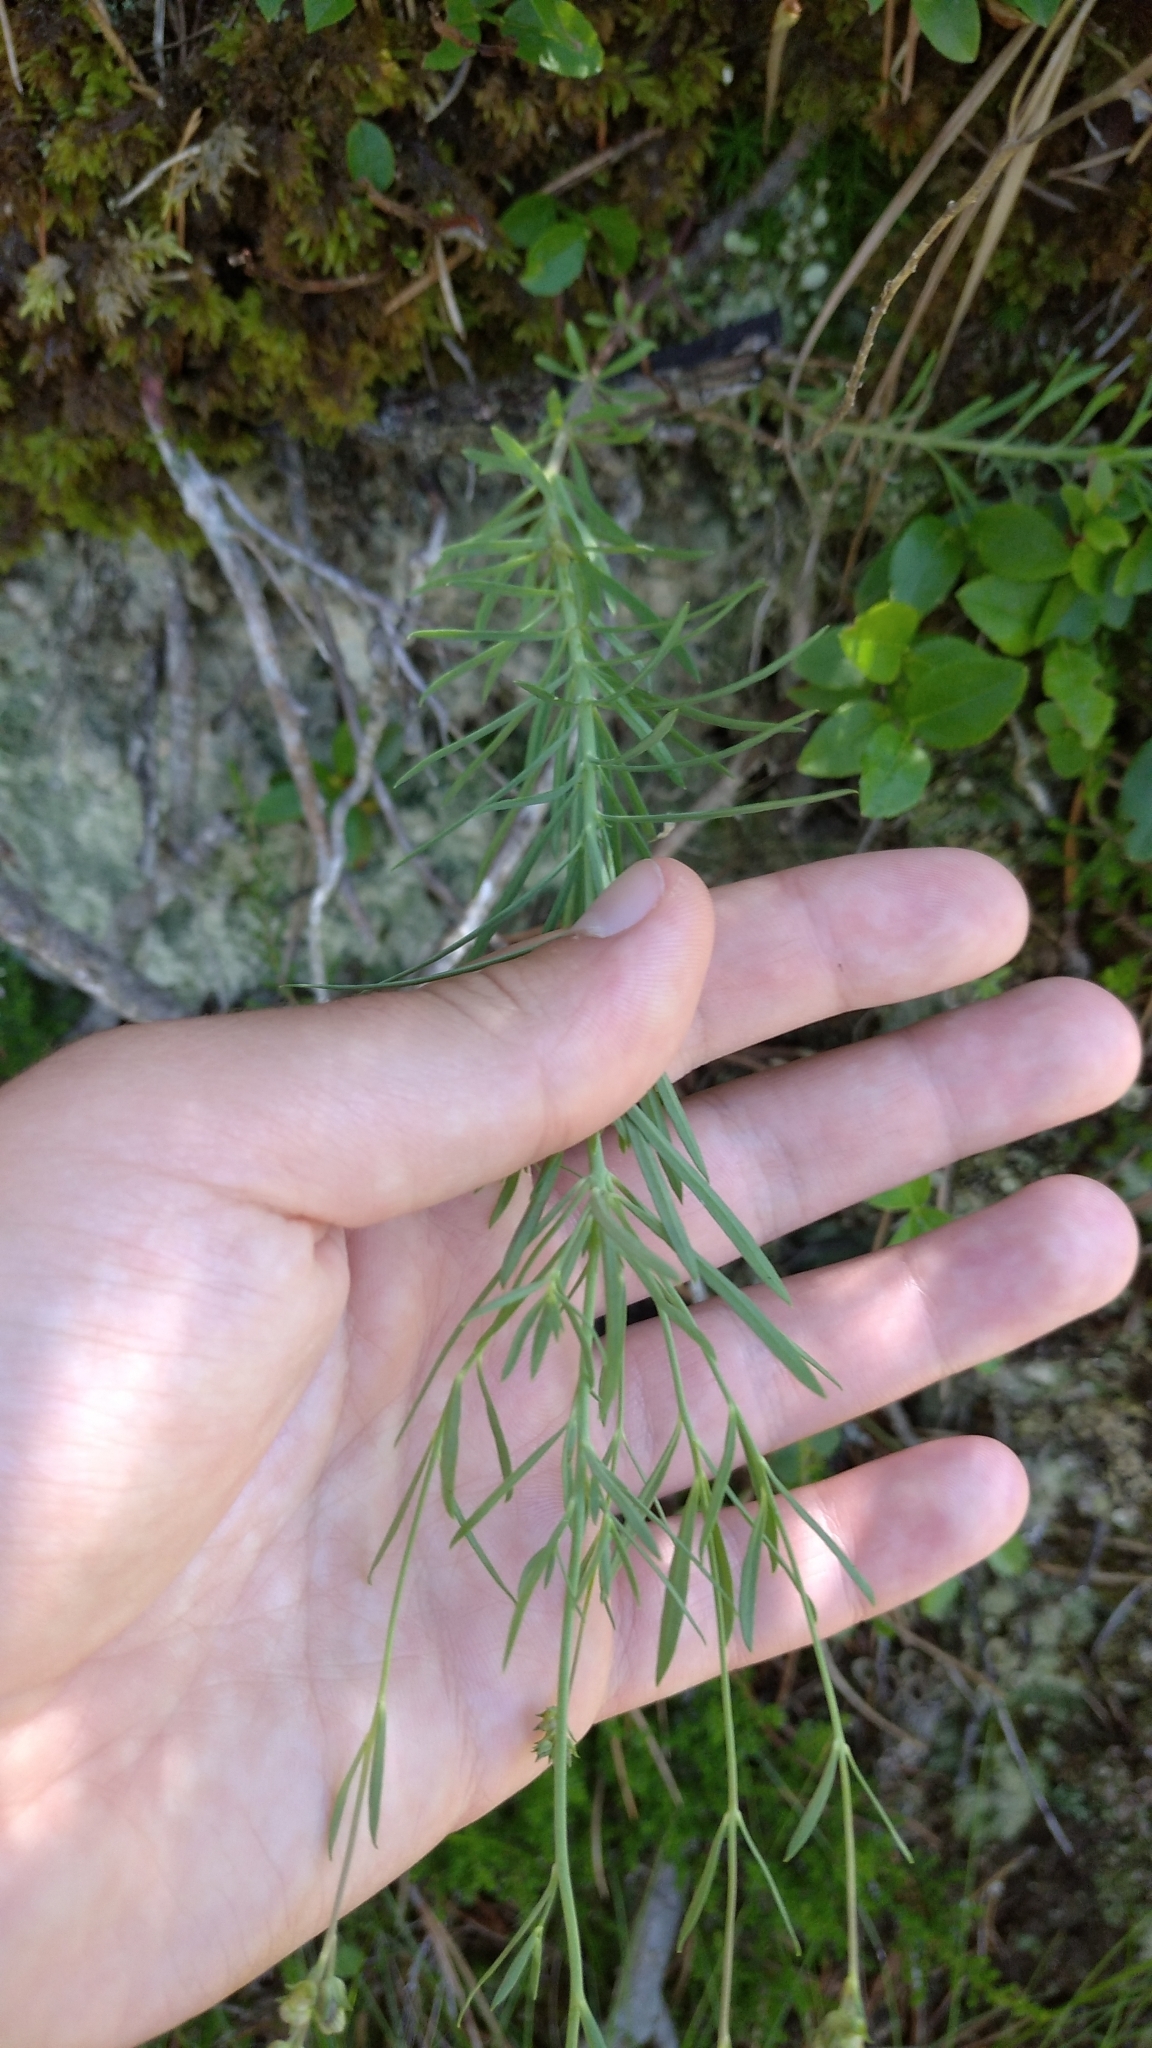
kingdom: Plantae
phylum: Tracheophyta
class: Magnoliopsida
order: Lamiales
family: Plantaginaceae
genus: Linaria
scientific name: Linaria repens
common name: Pale toadflax
